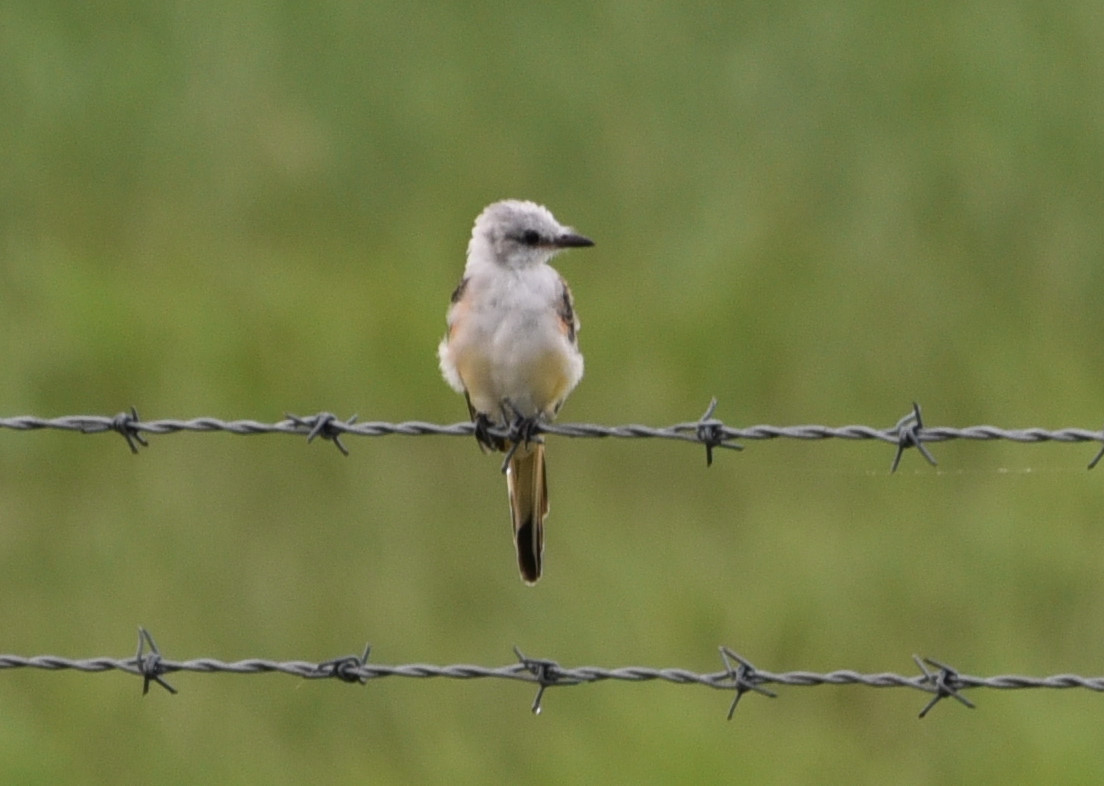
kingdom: Animalia
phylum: Chordata
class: Aves
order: Passeriformes
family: Tyrannidae
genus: Tyrannus
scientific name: Tyrannus forficatus
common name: Scissor-tailed flycatcher
